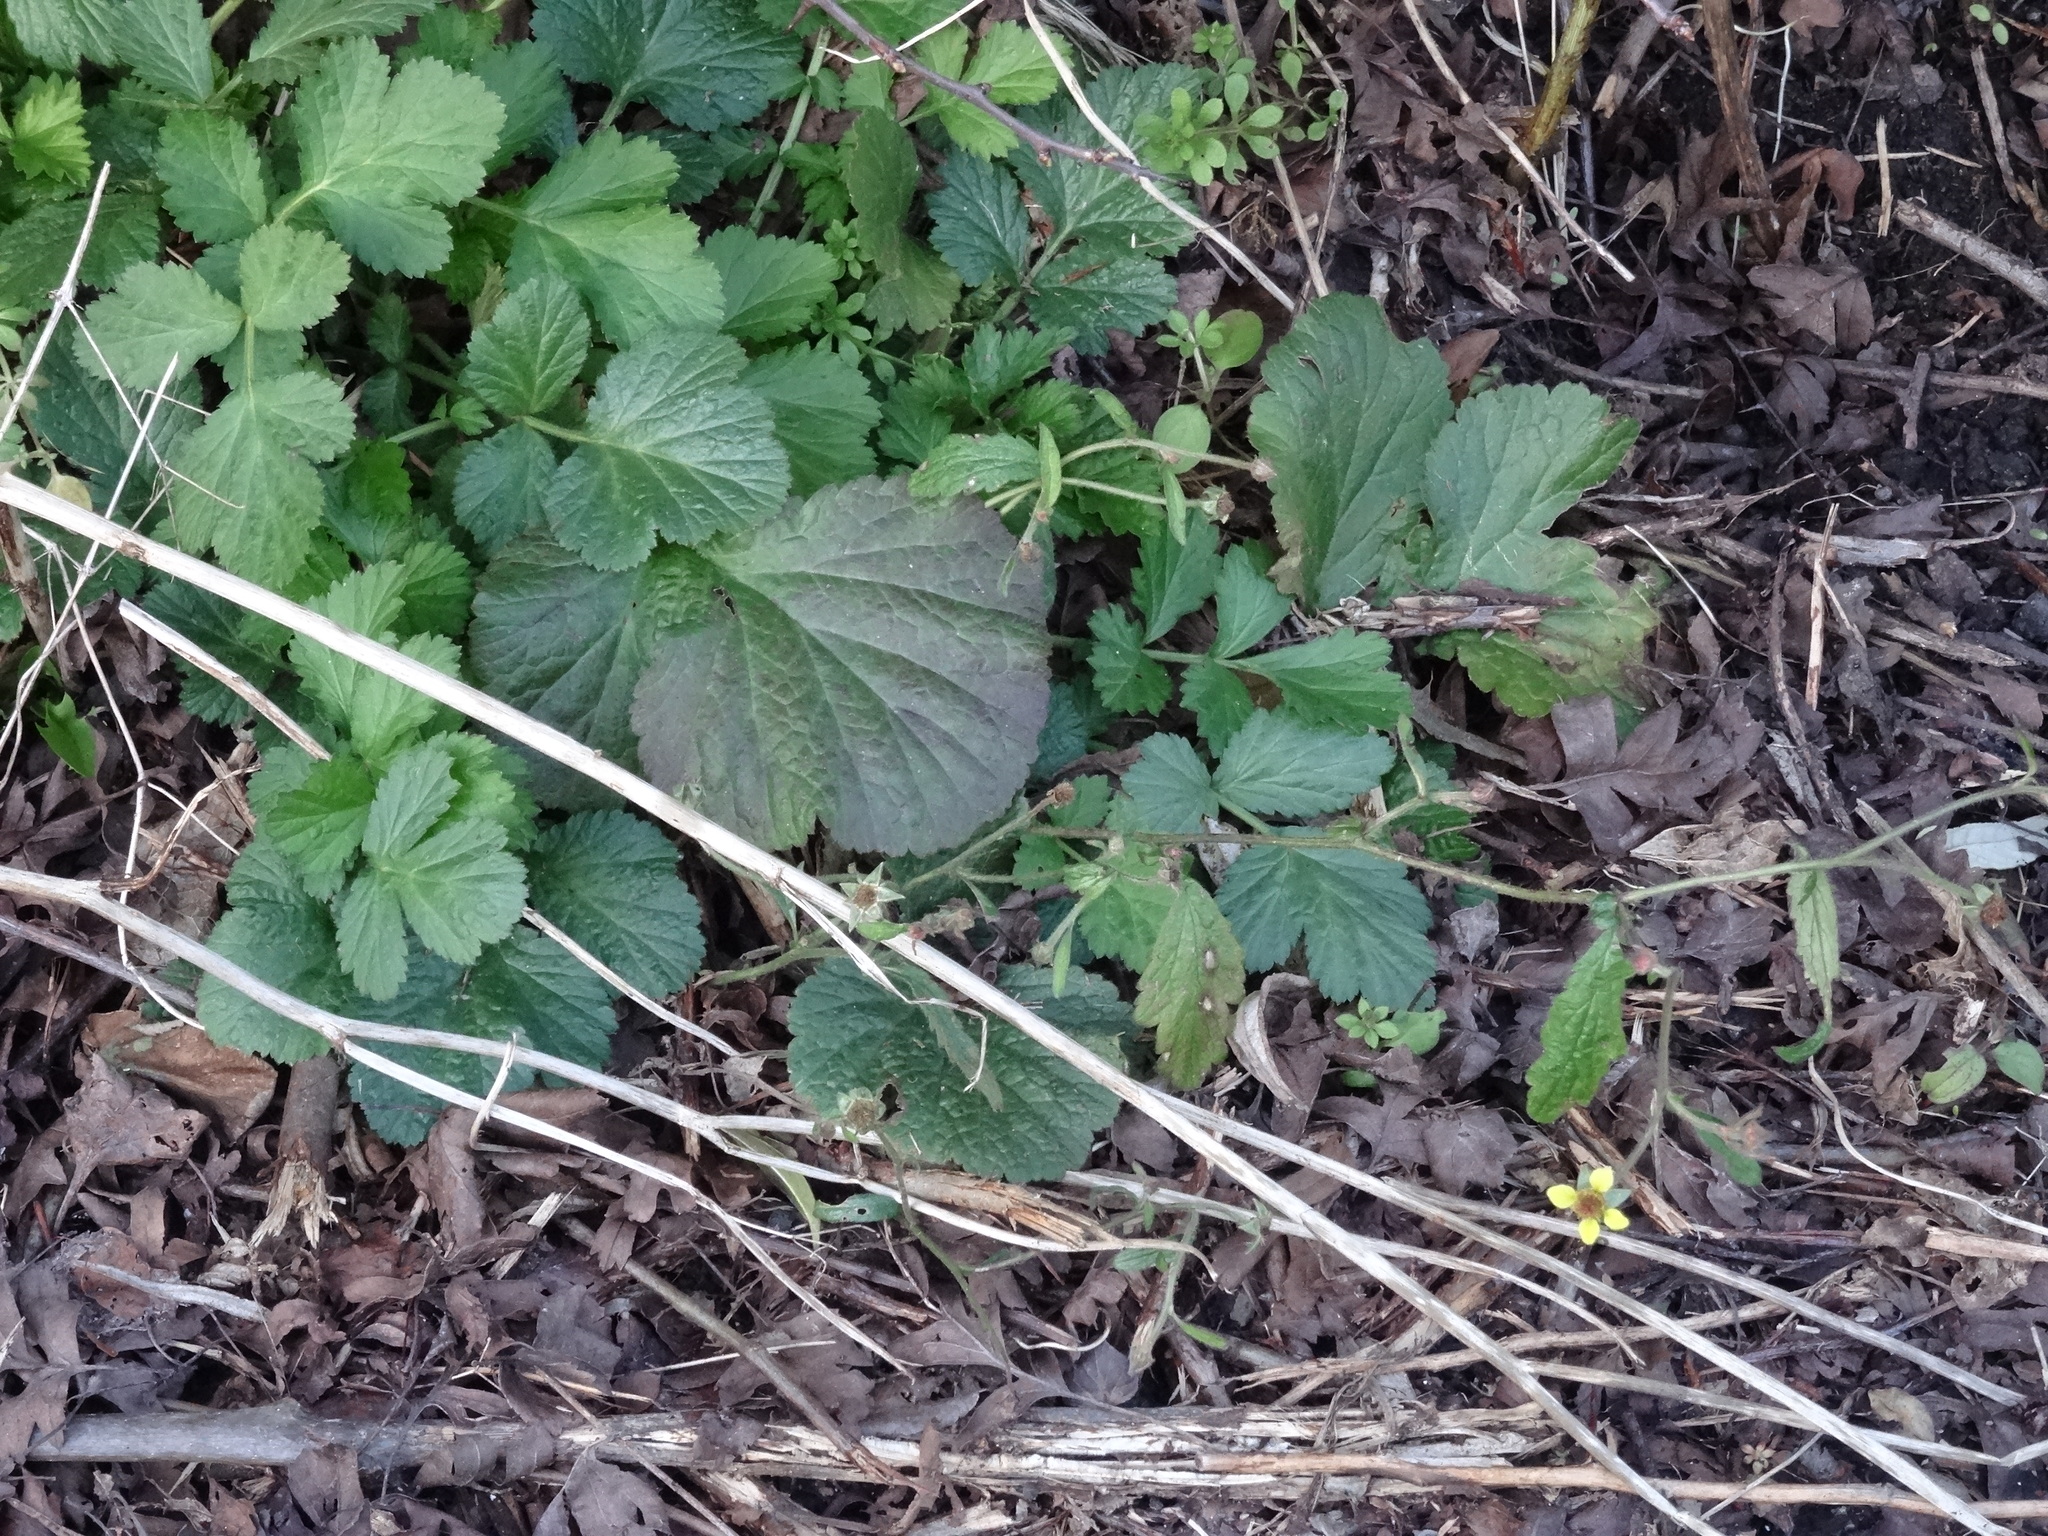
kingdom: Plantae
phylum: Tracheophyta
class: Magnoliopsida
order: Rosales
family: Rosaceae
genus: Geum
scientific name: Geum urbanum
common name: Wood avens
